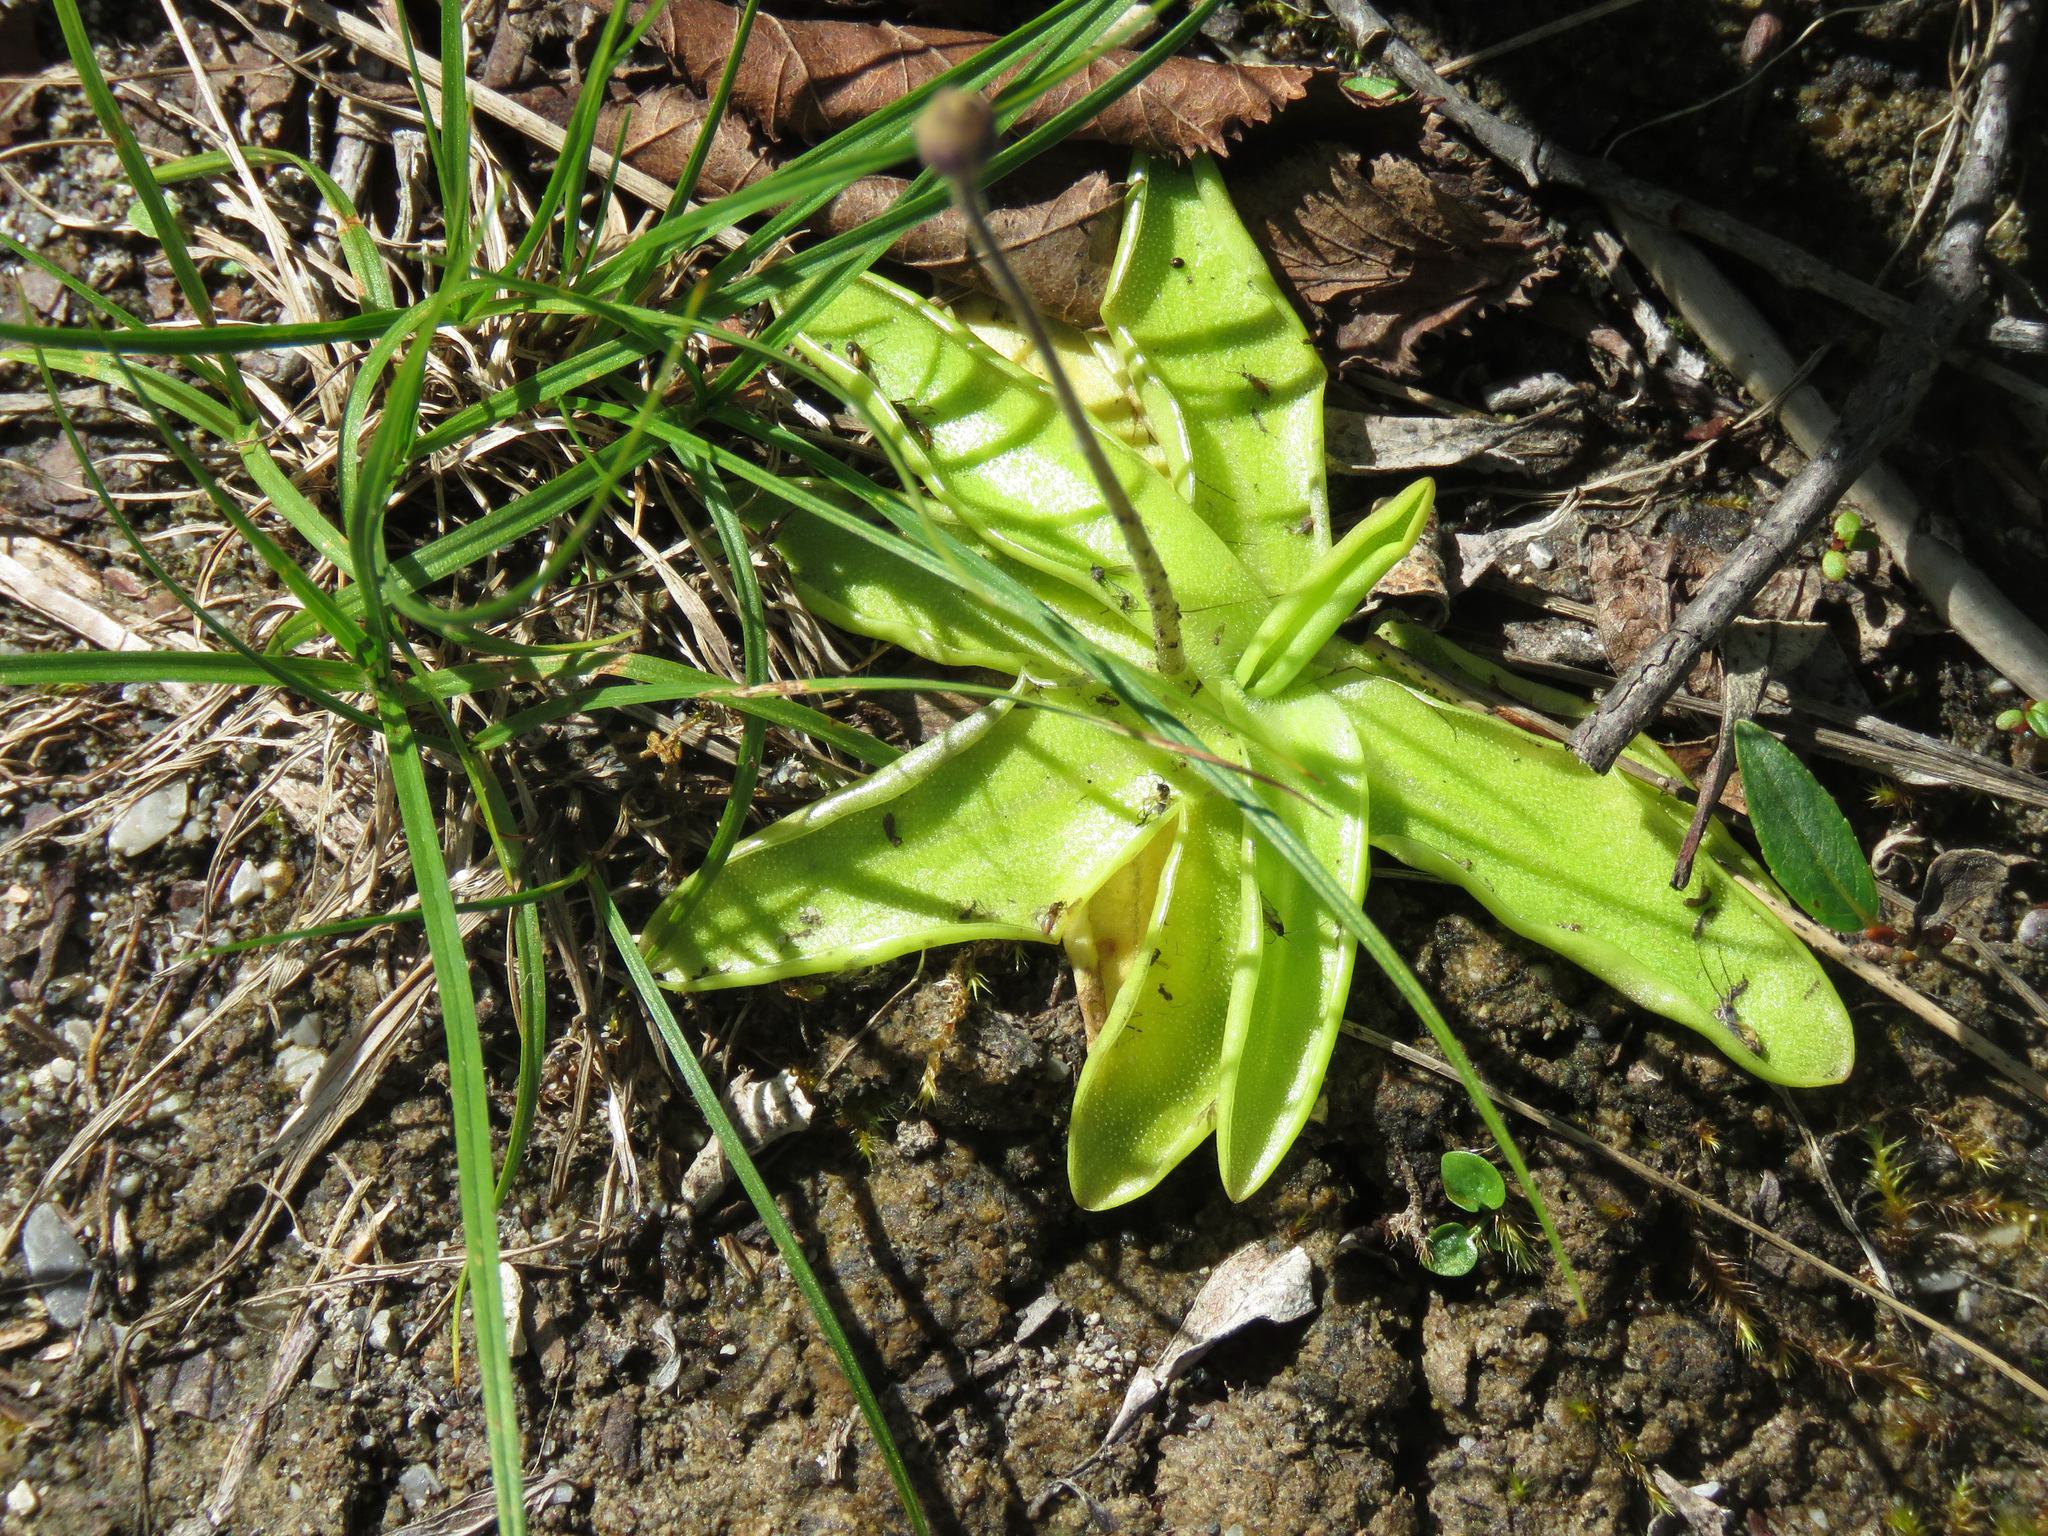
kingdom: Plantae
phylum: Tracheophyta
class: Magnoliopsida
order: Lamiales
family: Lentibulariaceae
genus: Pinguicula
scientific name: Pinguicula vulgaris
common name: Common butterwort
